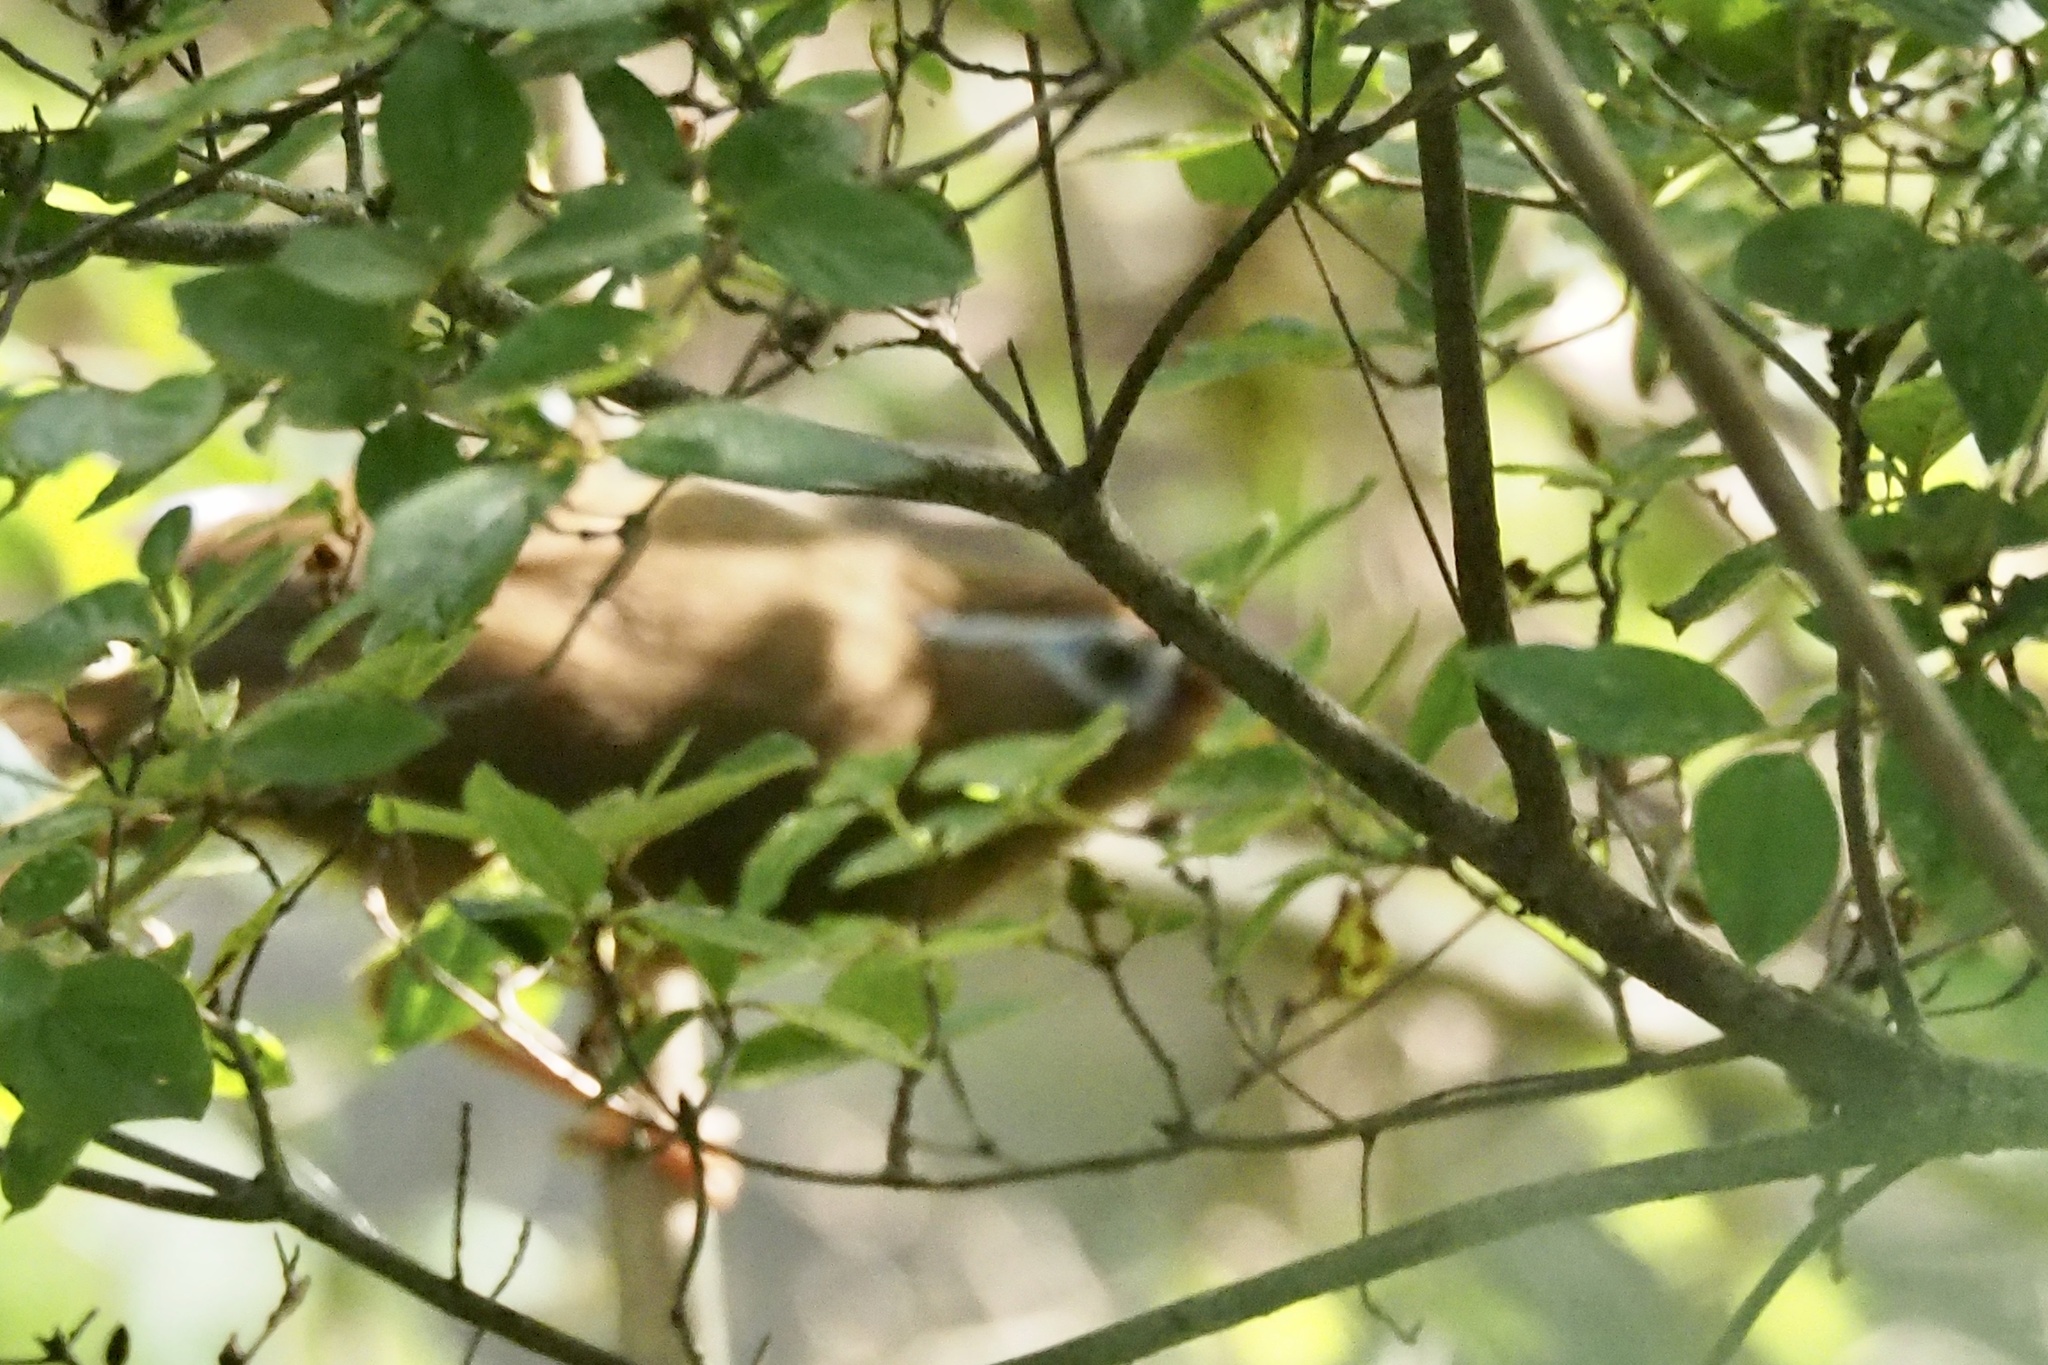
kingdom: Animalia
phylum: Chordata
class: Aves
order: Passeriformes
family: Leiothrichidae
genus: Garrulax
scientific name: Garrulax canorus
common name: Chinese hwamei
